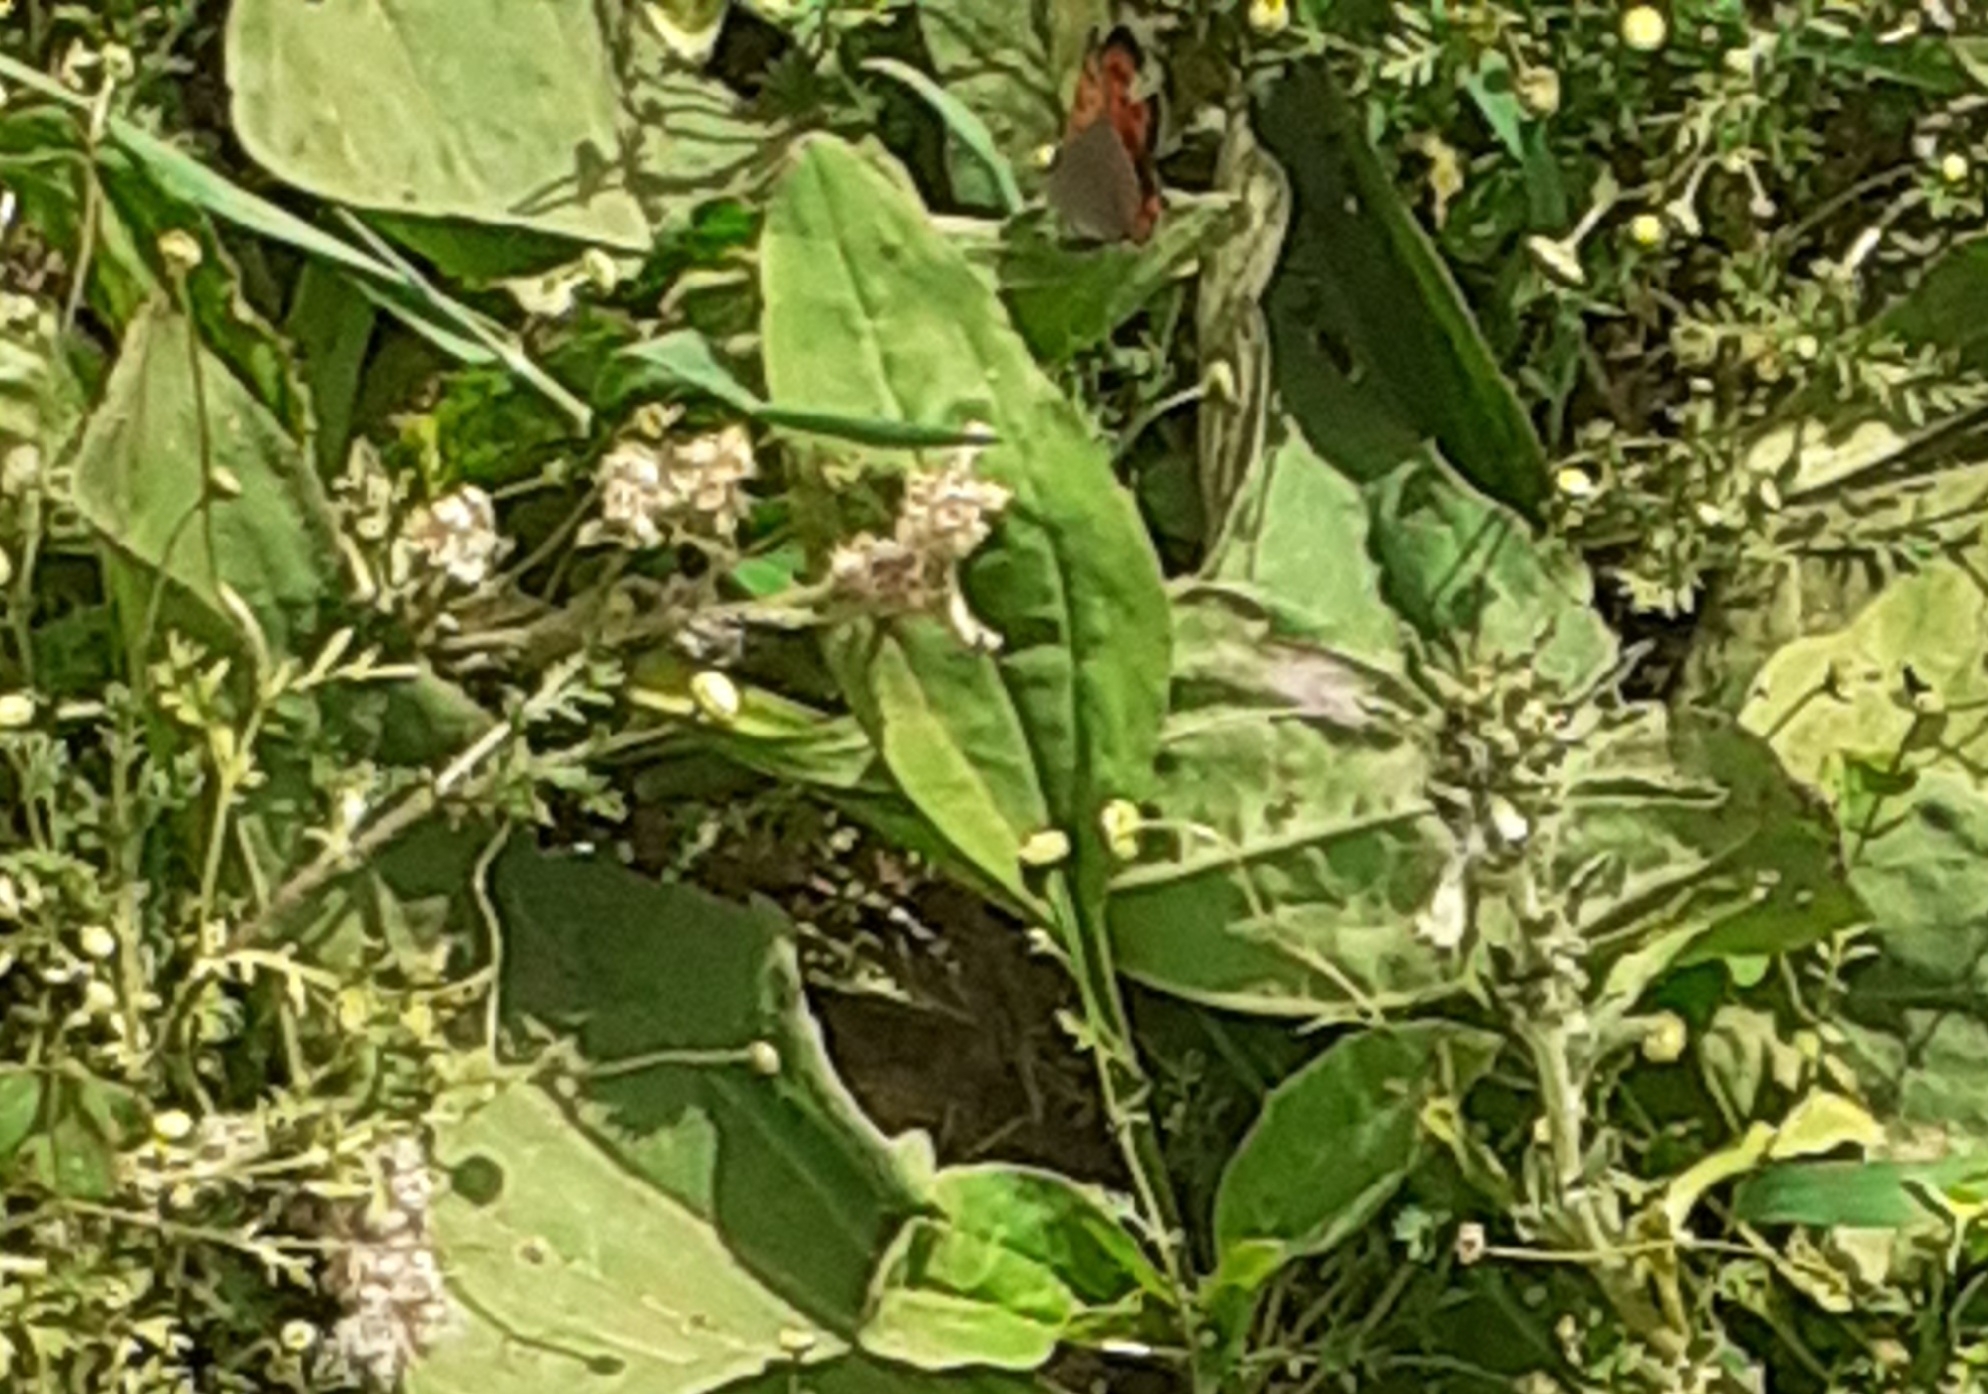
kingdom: Animalia
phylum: Arthropoda
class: Insecta
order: Lepidoptera
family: Lycaenidae
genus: Lycaena
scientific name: Lycaena phlaeas
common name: Small copper
